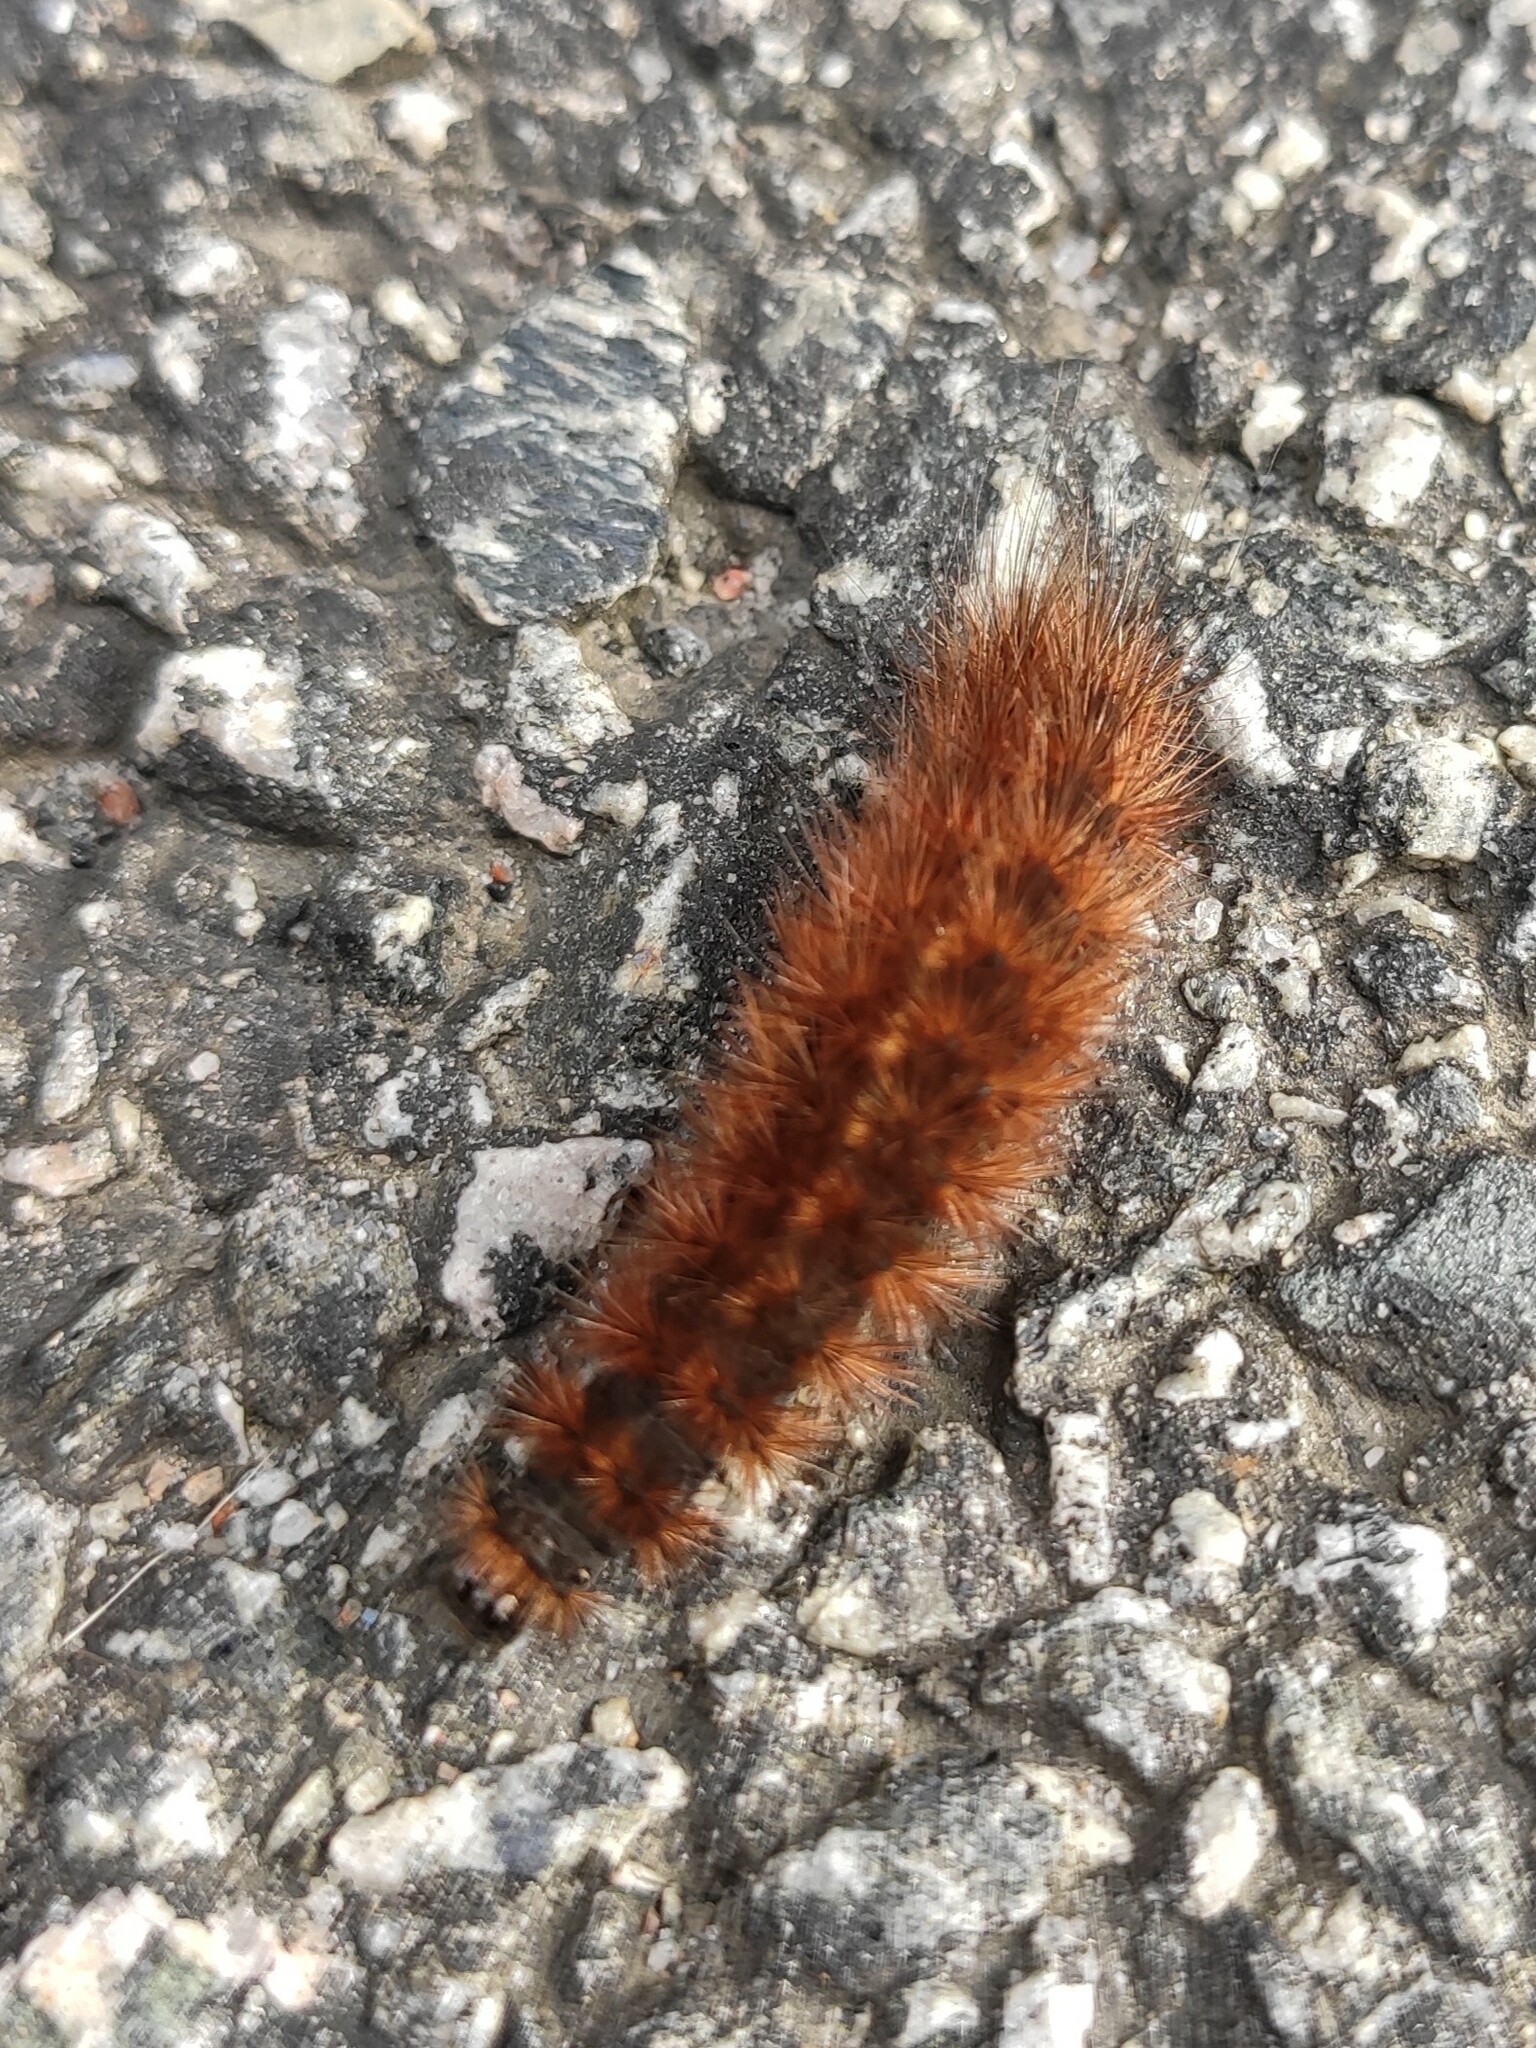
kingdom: Animalia
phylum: Arthropoda
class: Insecta
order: Lepidoptera
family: Erebidae
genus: Phragmatobia
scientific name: Phragmatobia fuliginosa
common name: Ruby tiger
